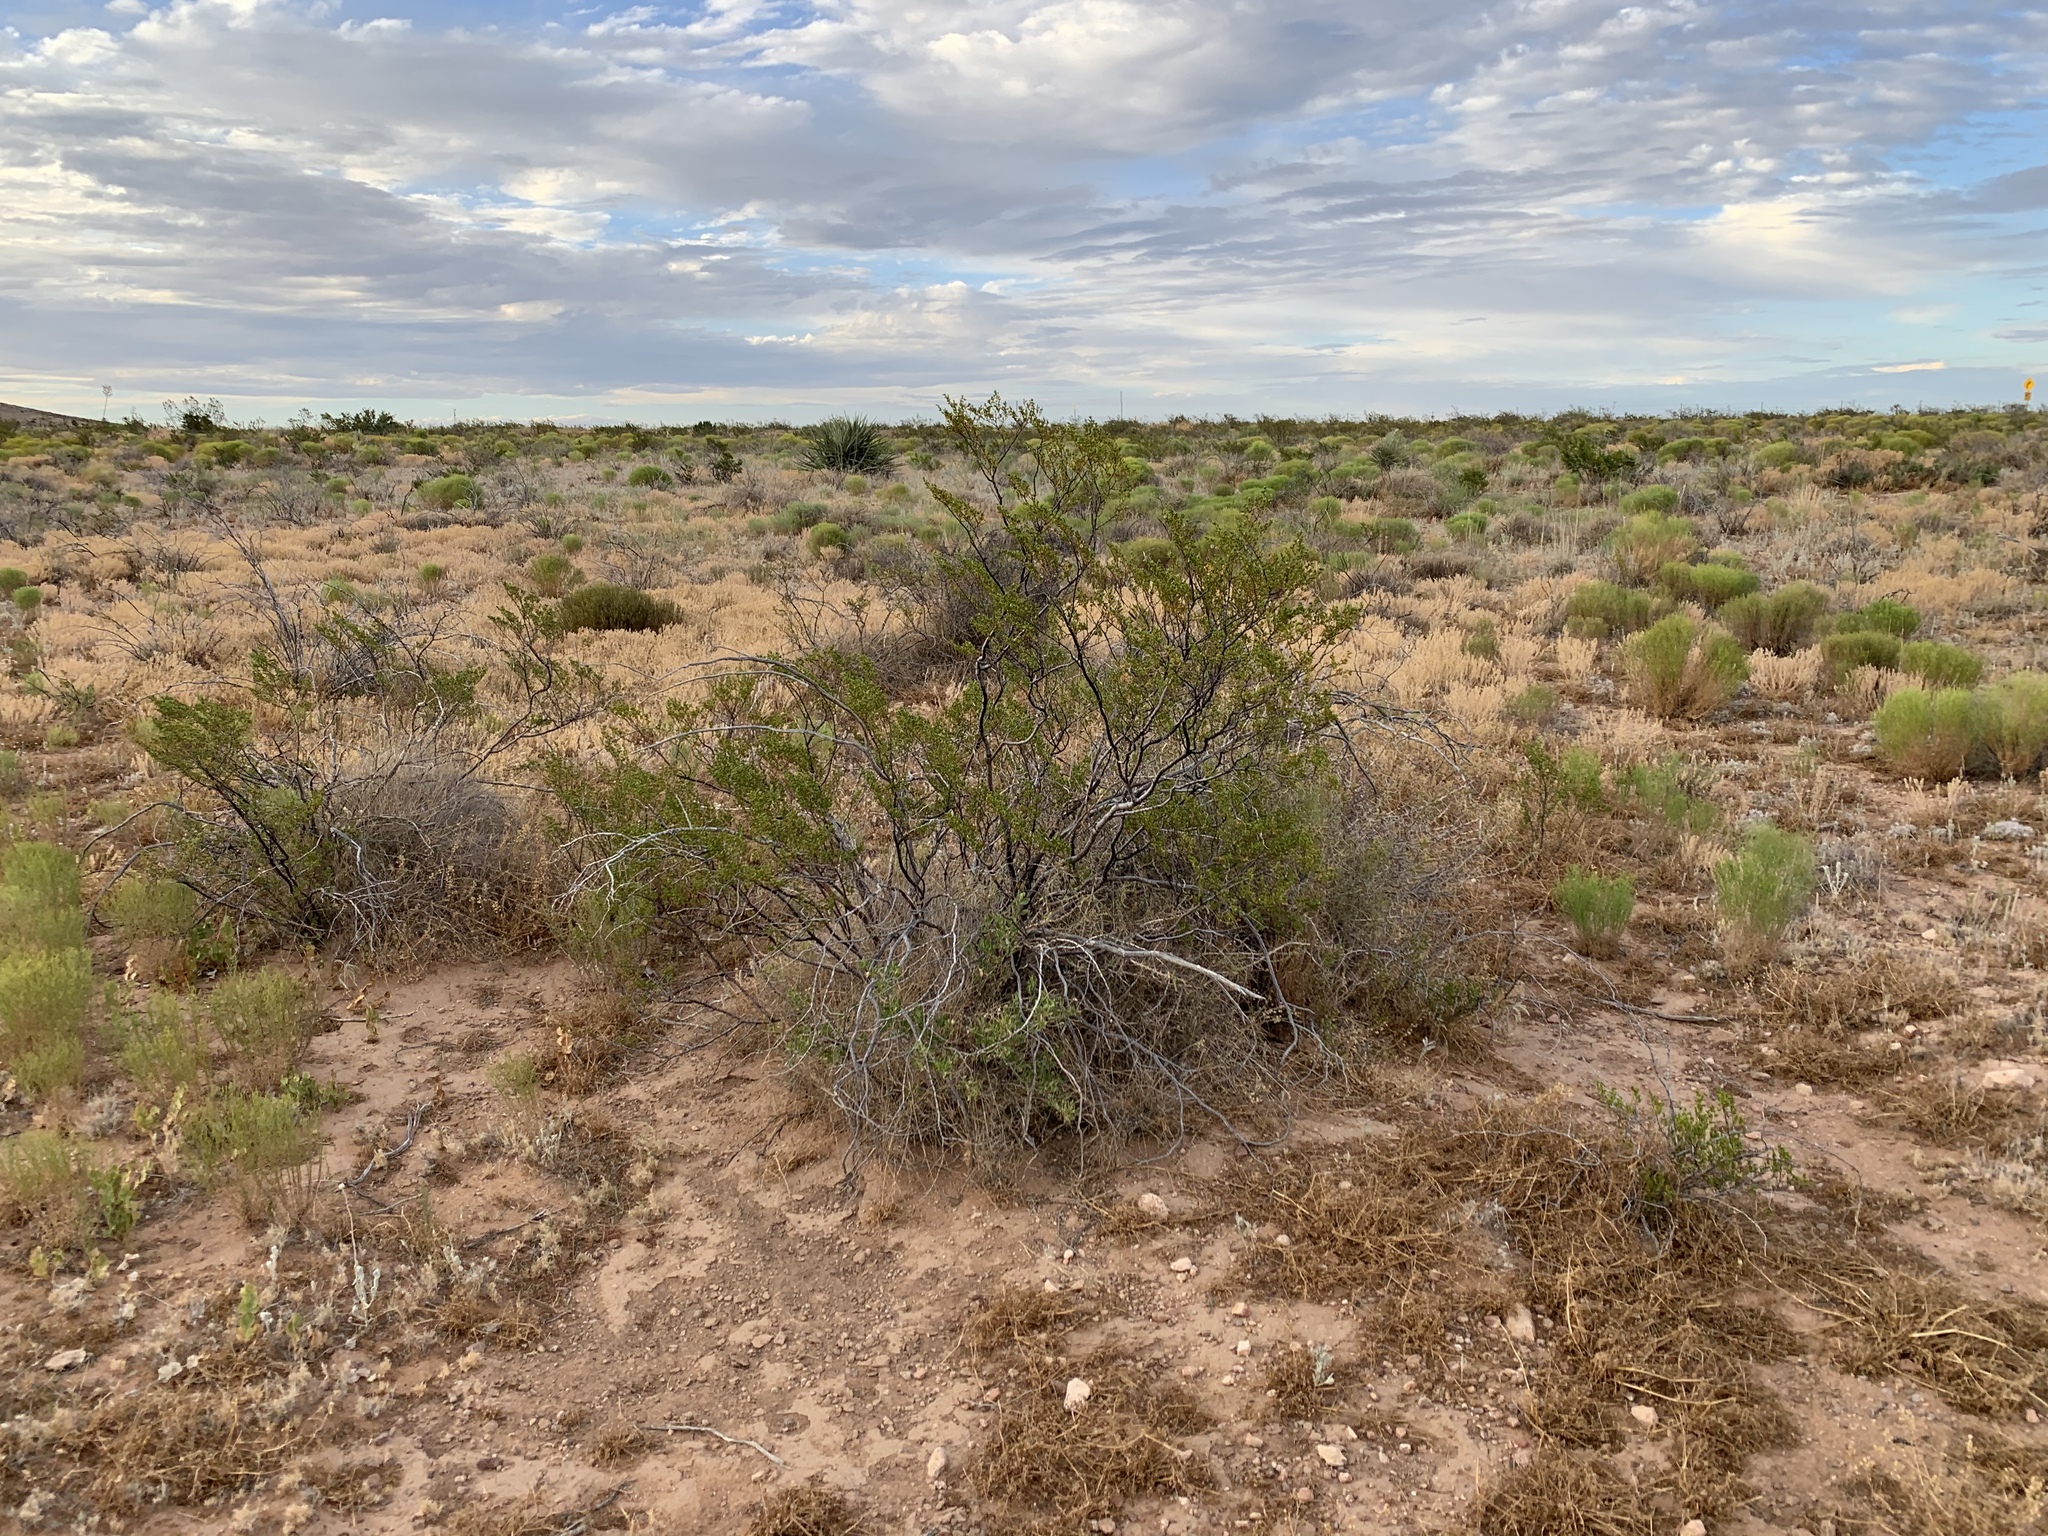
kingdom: Plantae
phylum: Tracheophyta
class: Magnoliopsida
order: Zygophyllales
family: Zygophyllaceae
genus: Larrea
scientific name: Larrea tridentata
